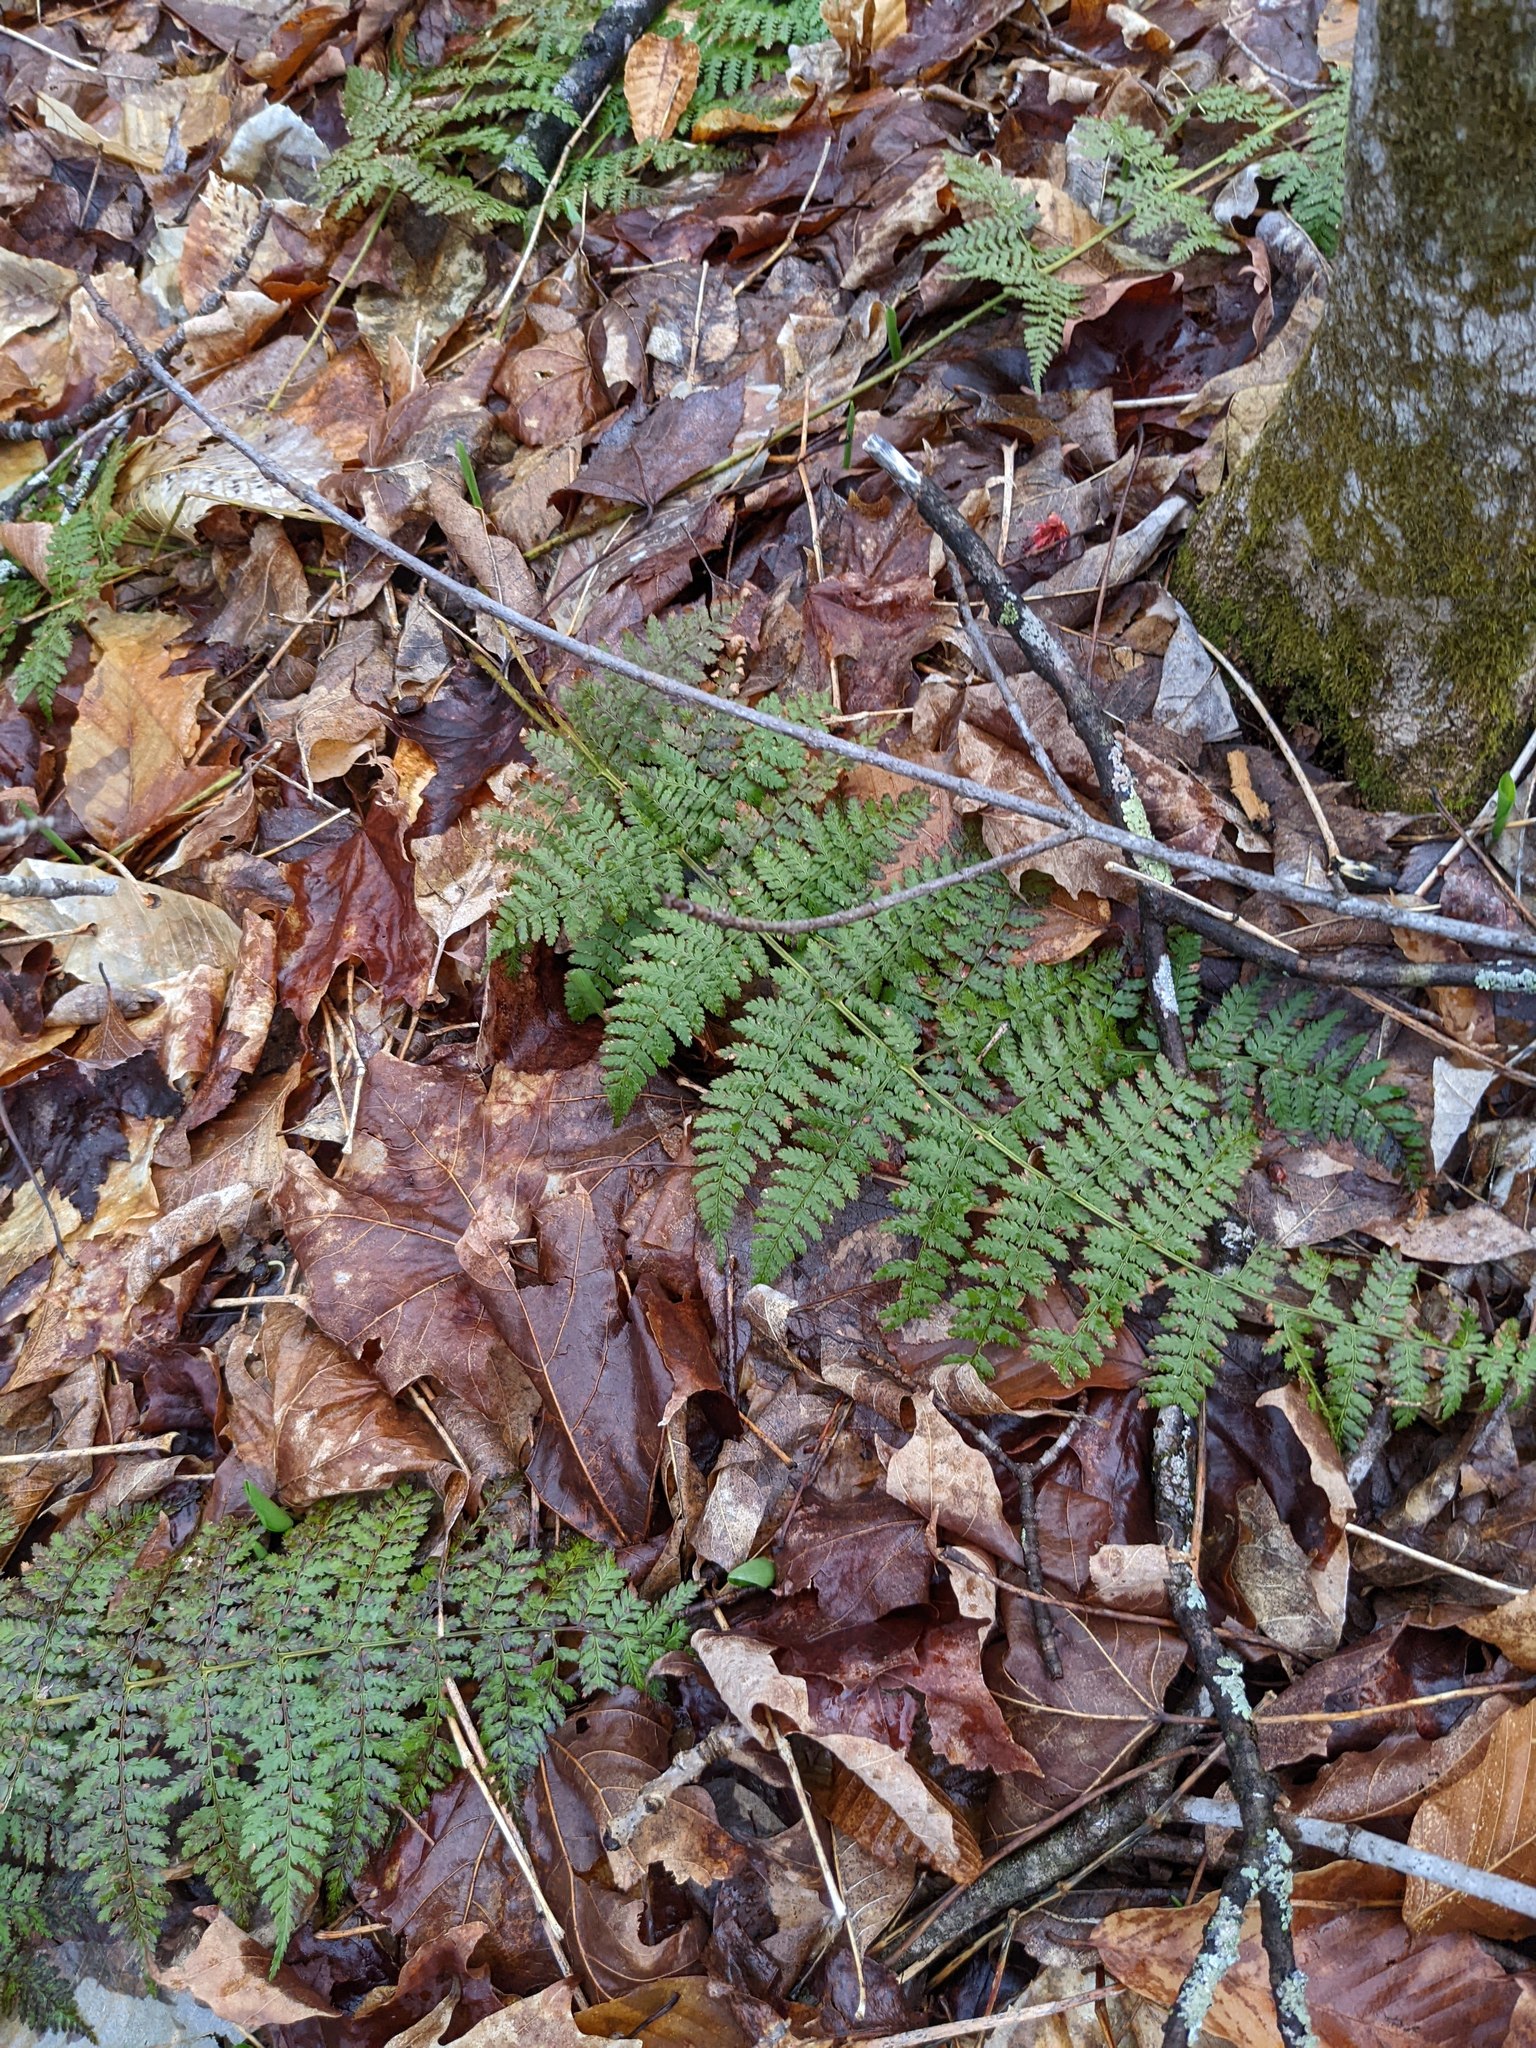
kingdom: Plantae
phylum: Tracheophyta
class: Polypodiopsida
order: Polypodiales
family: Dryopteridaceae
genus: Dryopteris
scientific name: Dryopteris intermedia
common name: Evergreen wood fern
